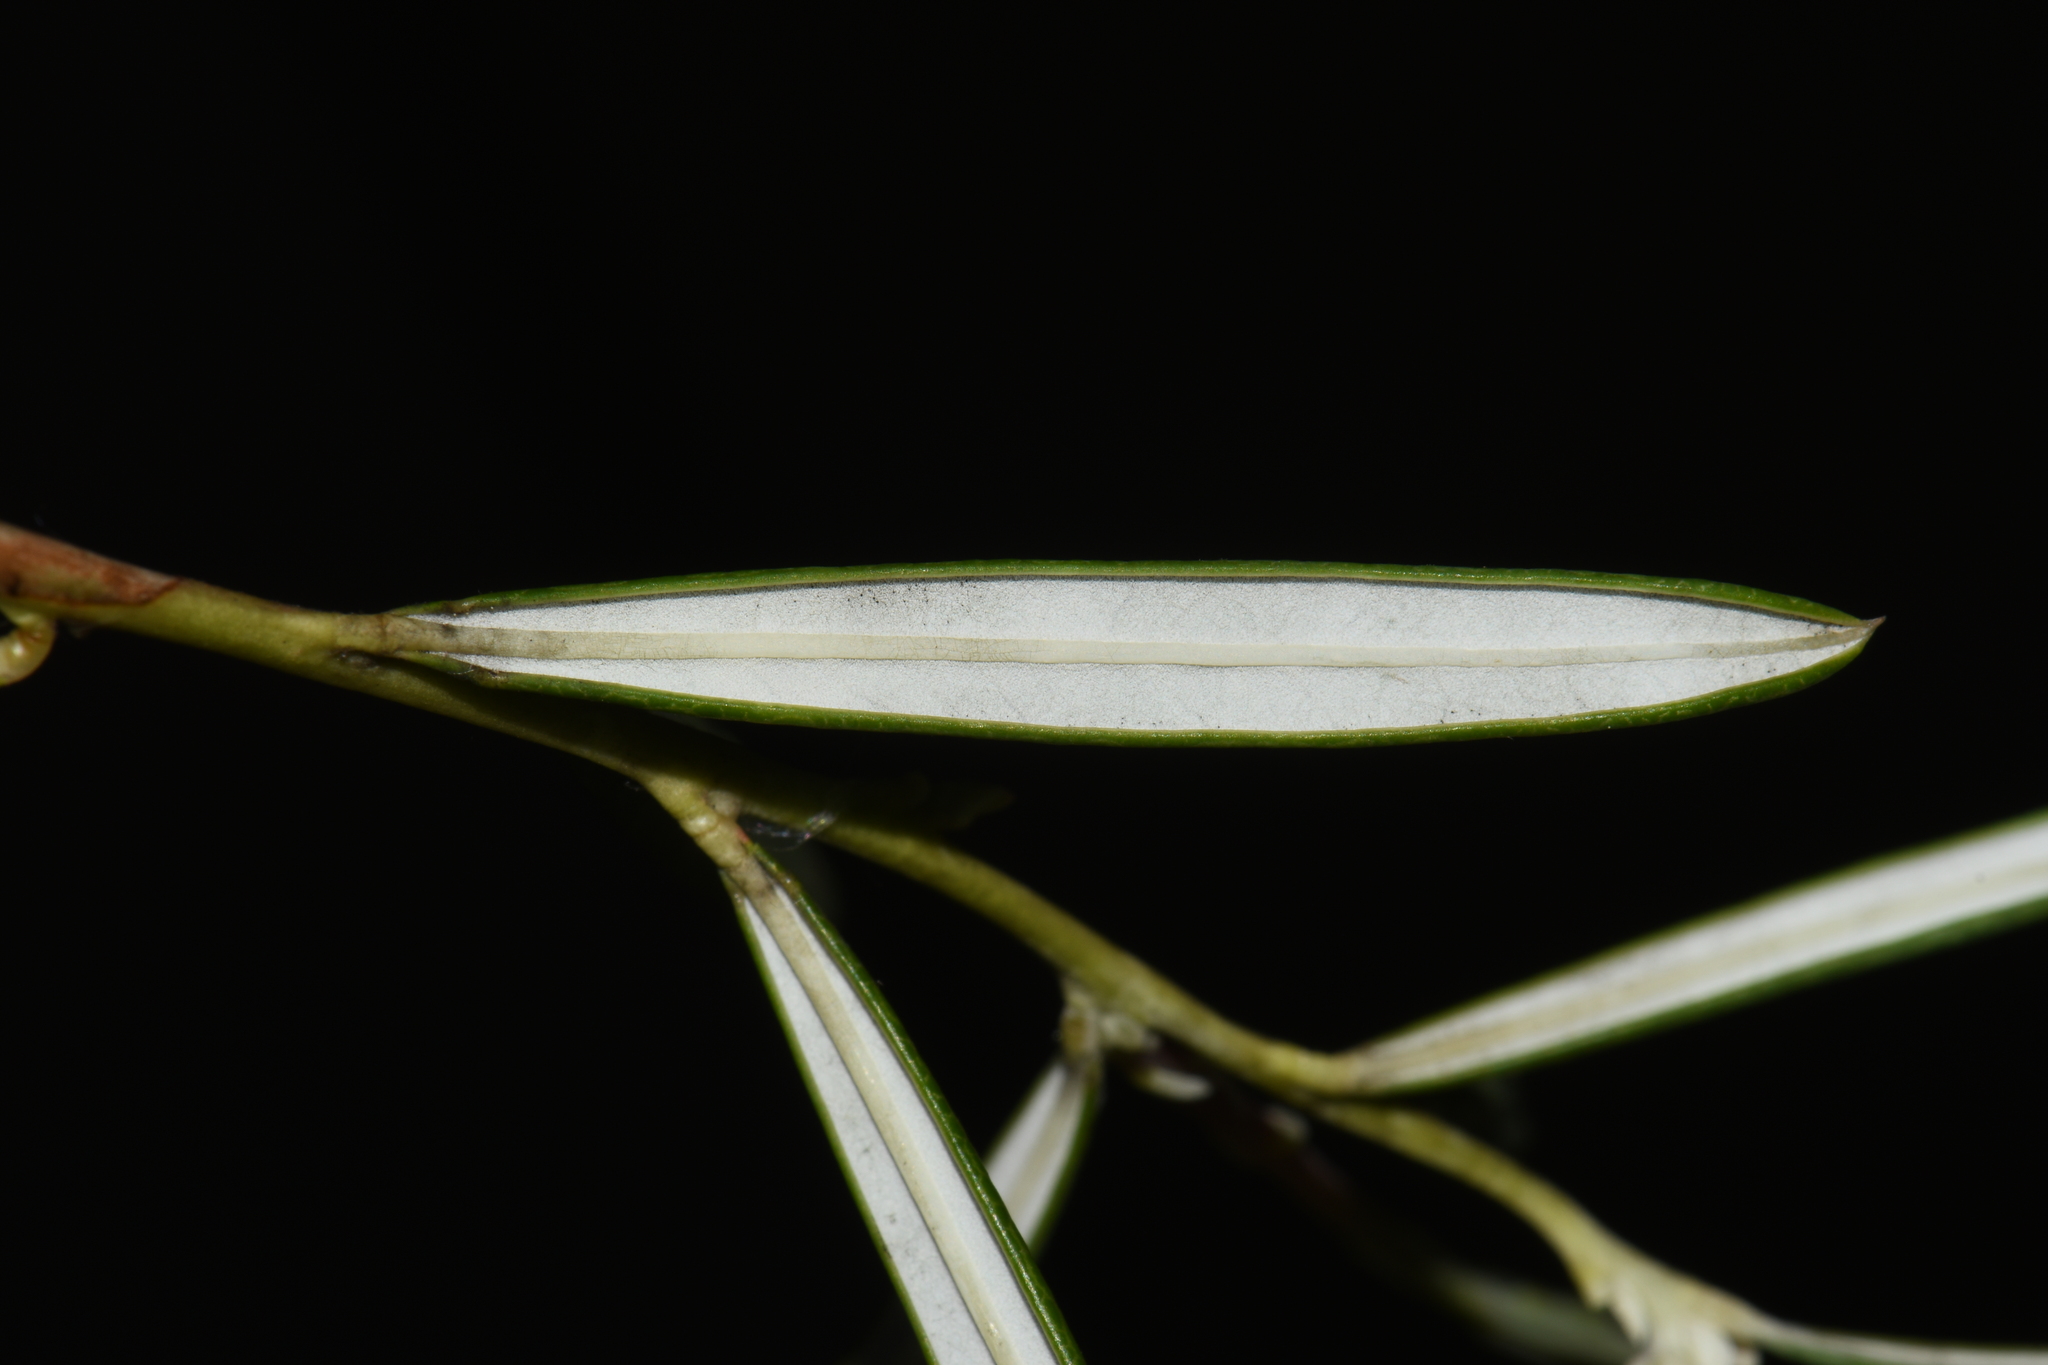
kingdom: Plantae
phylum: Tracheophyta
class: Magnoliopsida
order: Ericales
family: Ericaceae
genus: Andromeda
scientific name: Andromeda polifolia
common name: Bog-rosemary
